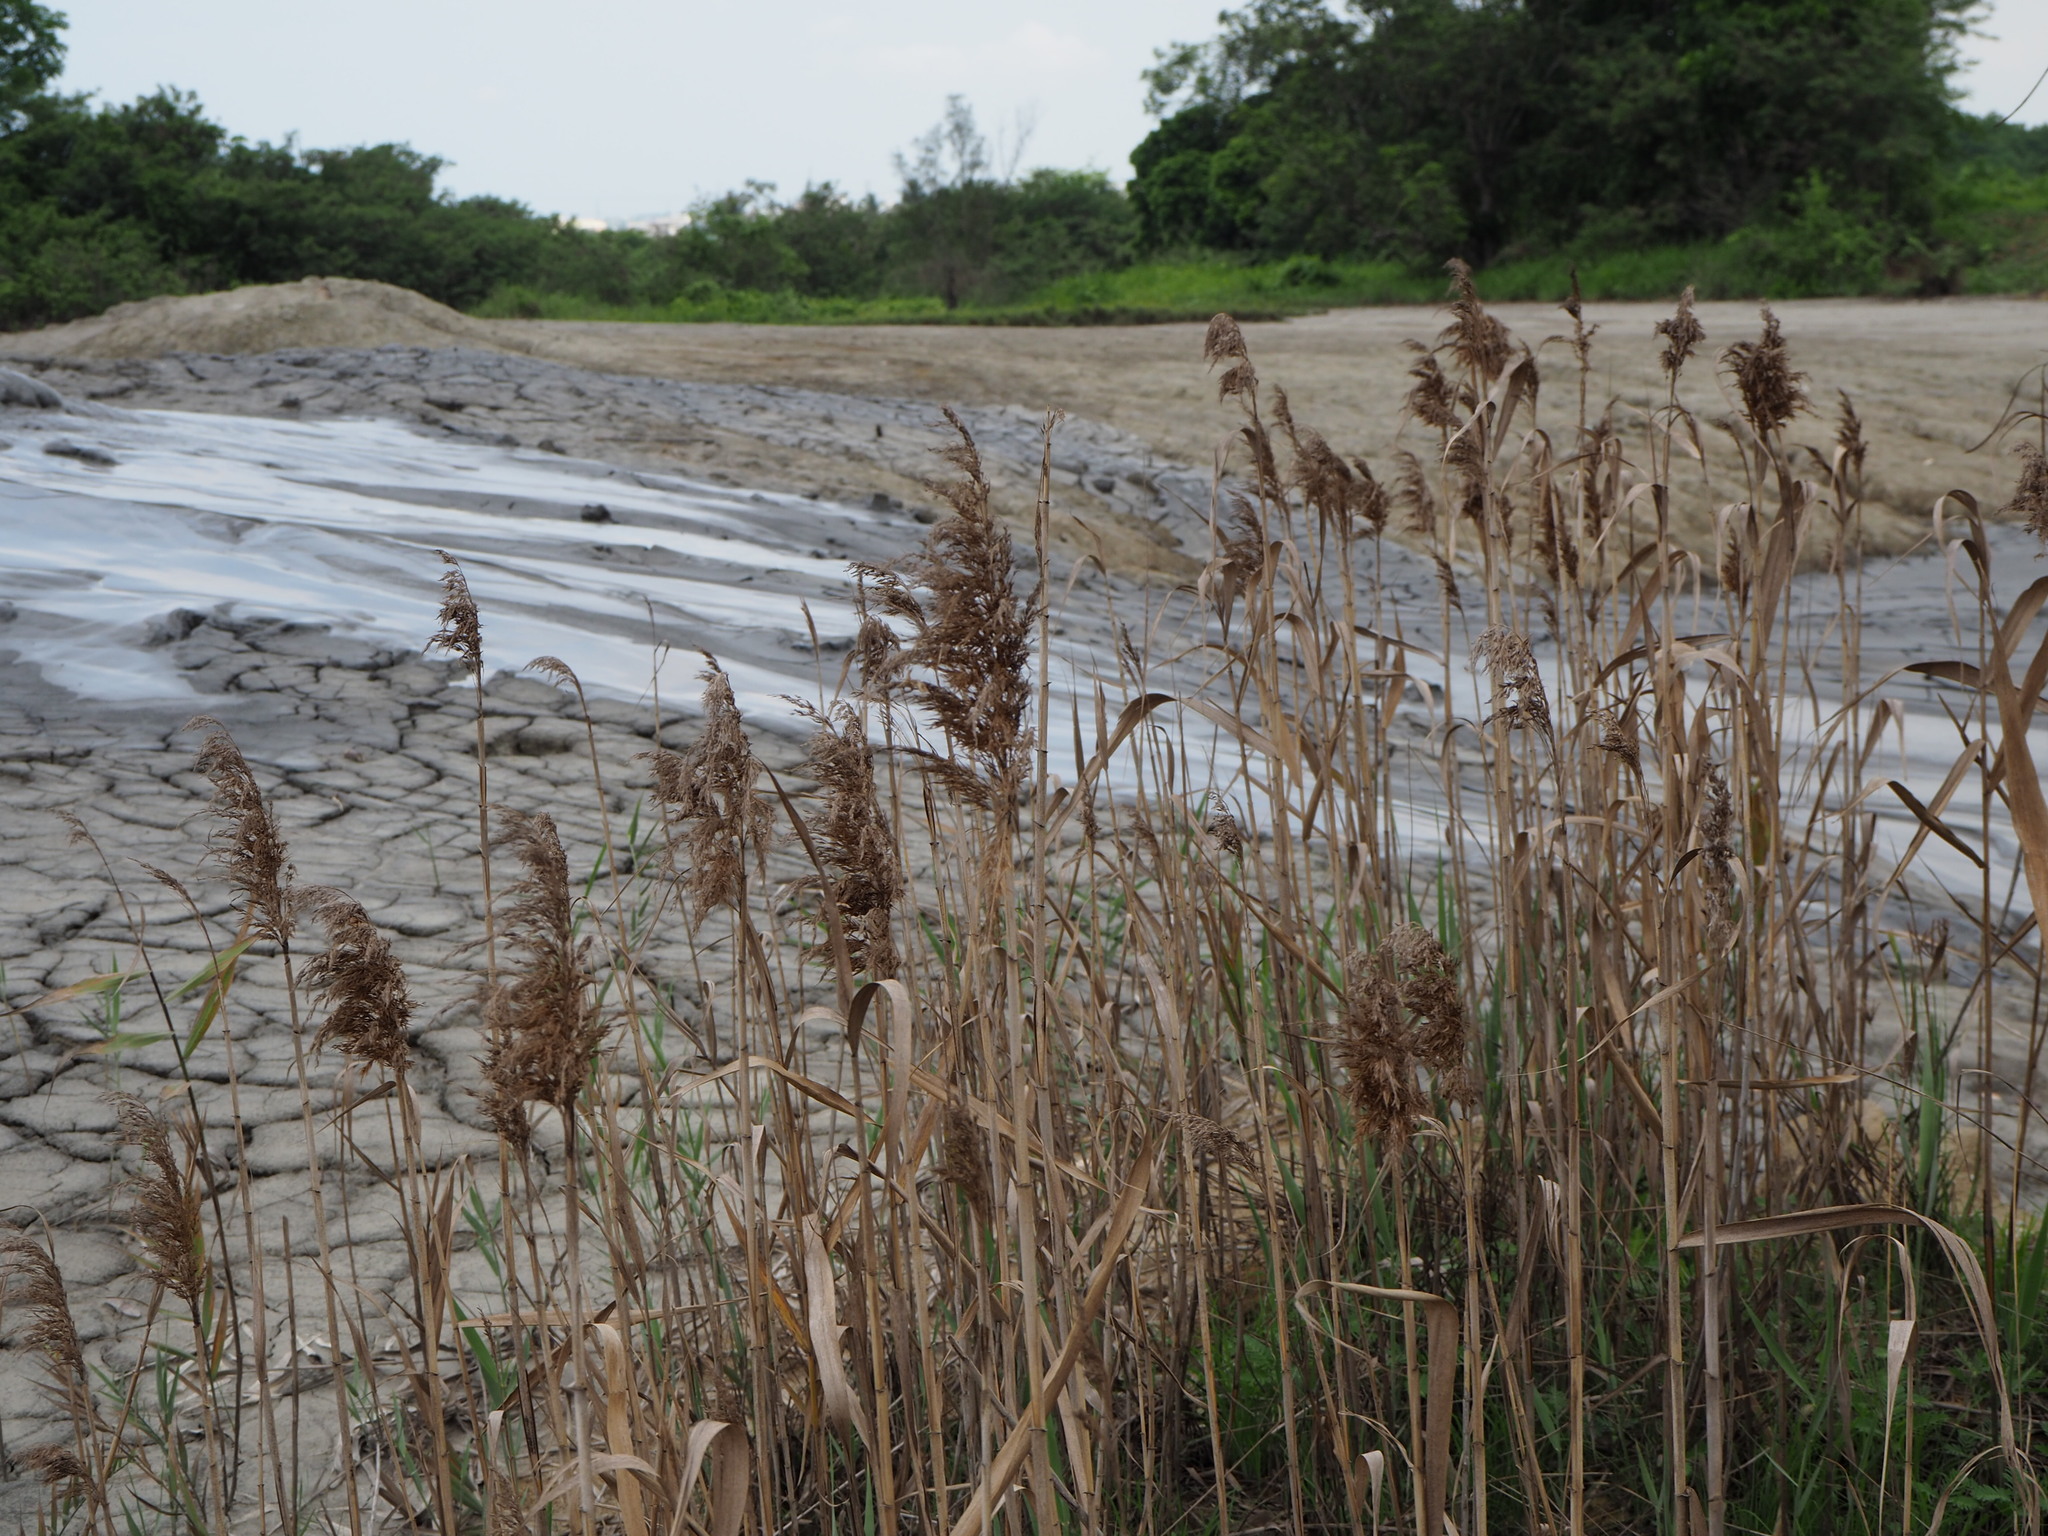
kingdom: Plantae
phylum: Tracheophyta
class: Liliopsida
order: Poales
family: Poaceae
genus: Phragmites
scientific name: Phragmites australis
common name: Common reed
